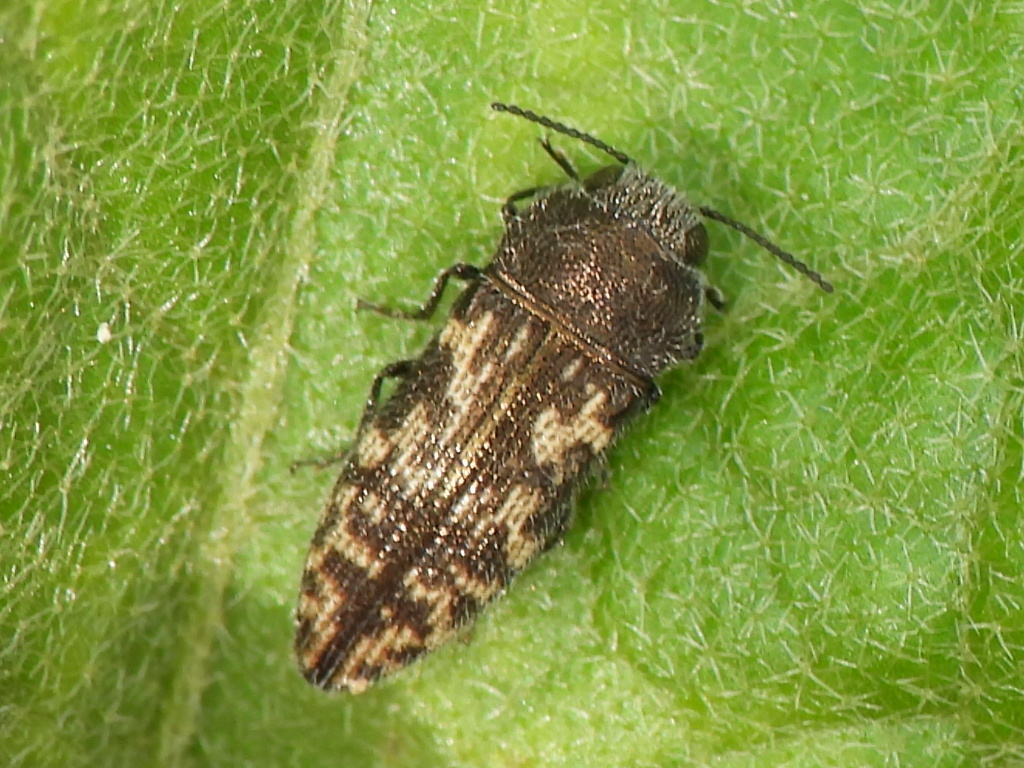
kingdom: Animalia
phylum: Arthropoda
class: Insecta
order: Coleoptera
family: Buprestidae
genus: Acmaeodera
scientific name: Acmaeodera neglecta
